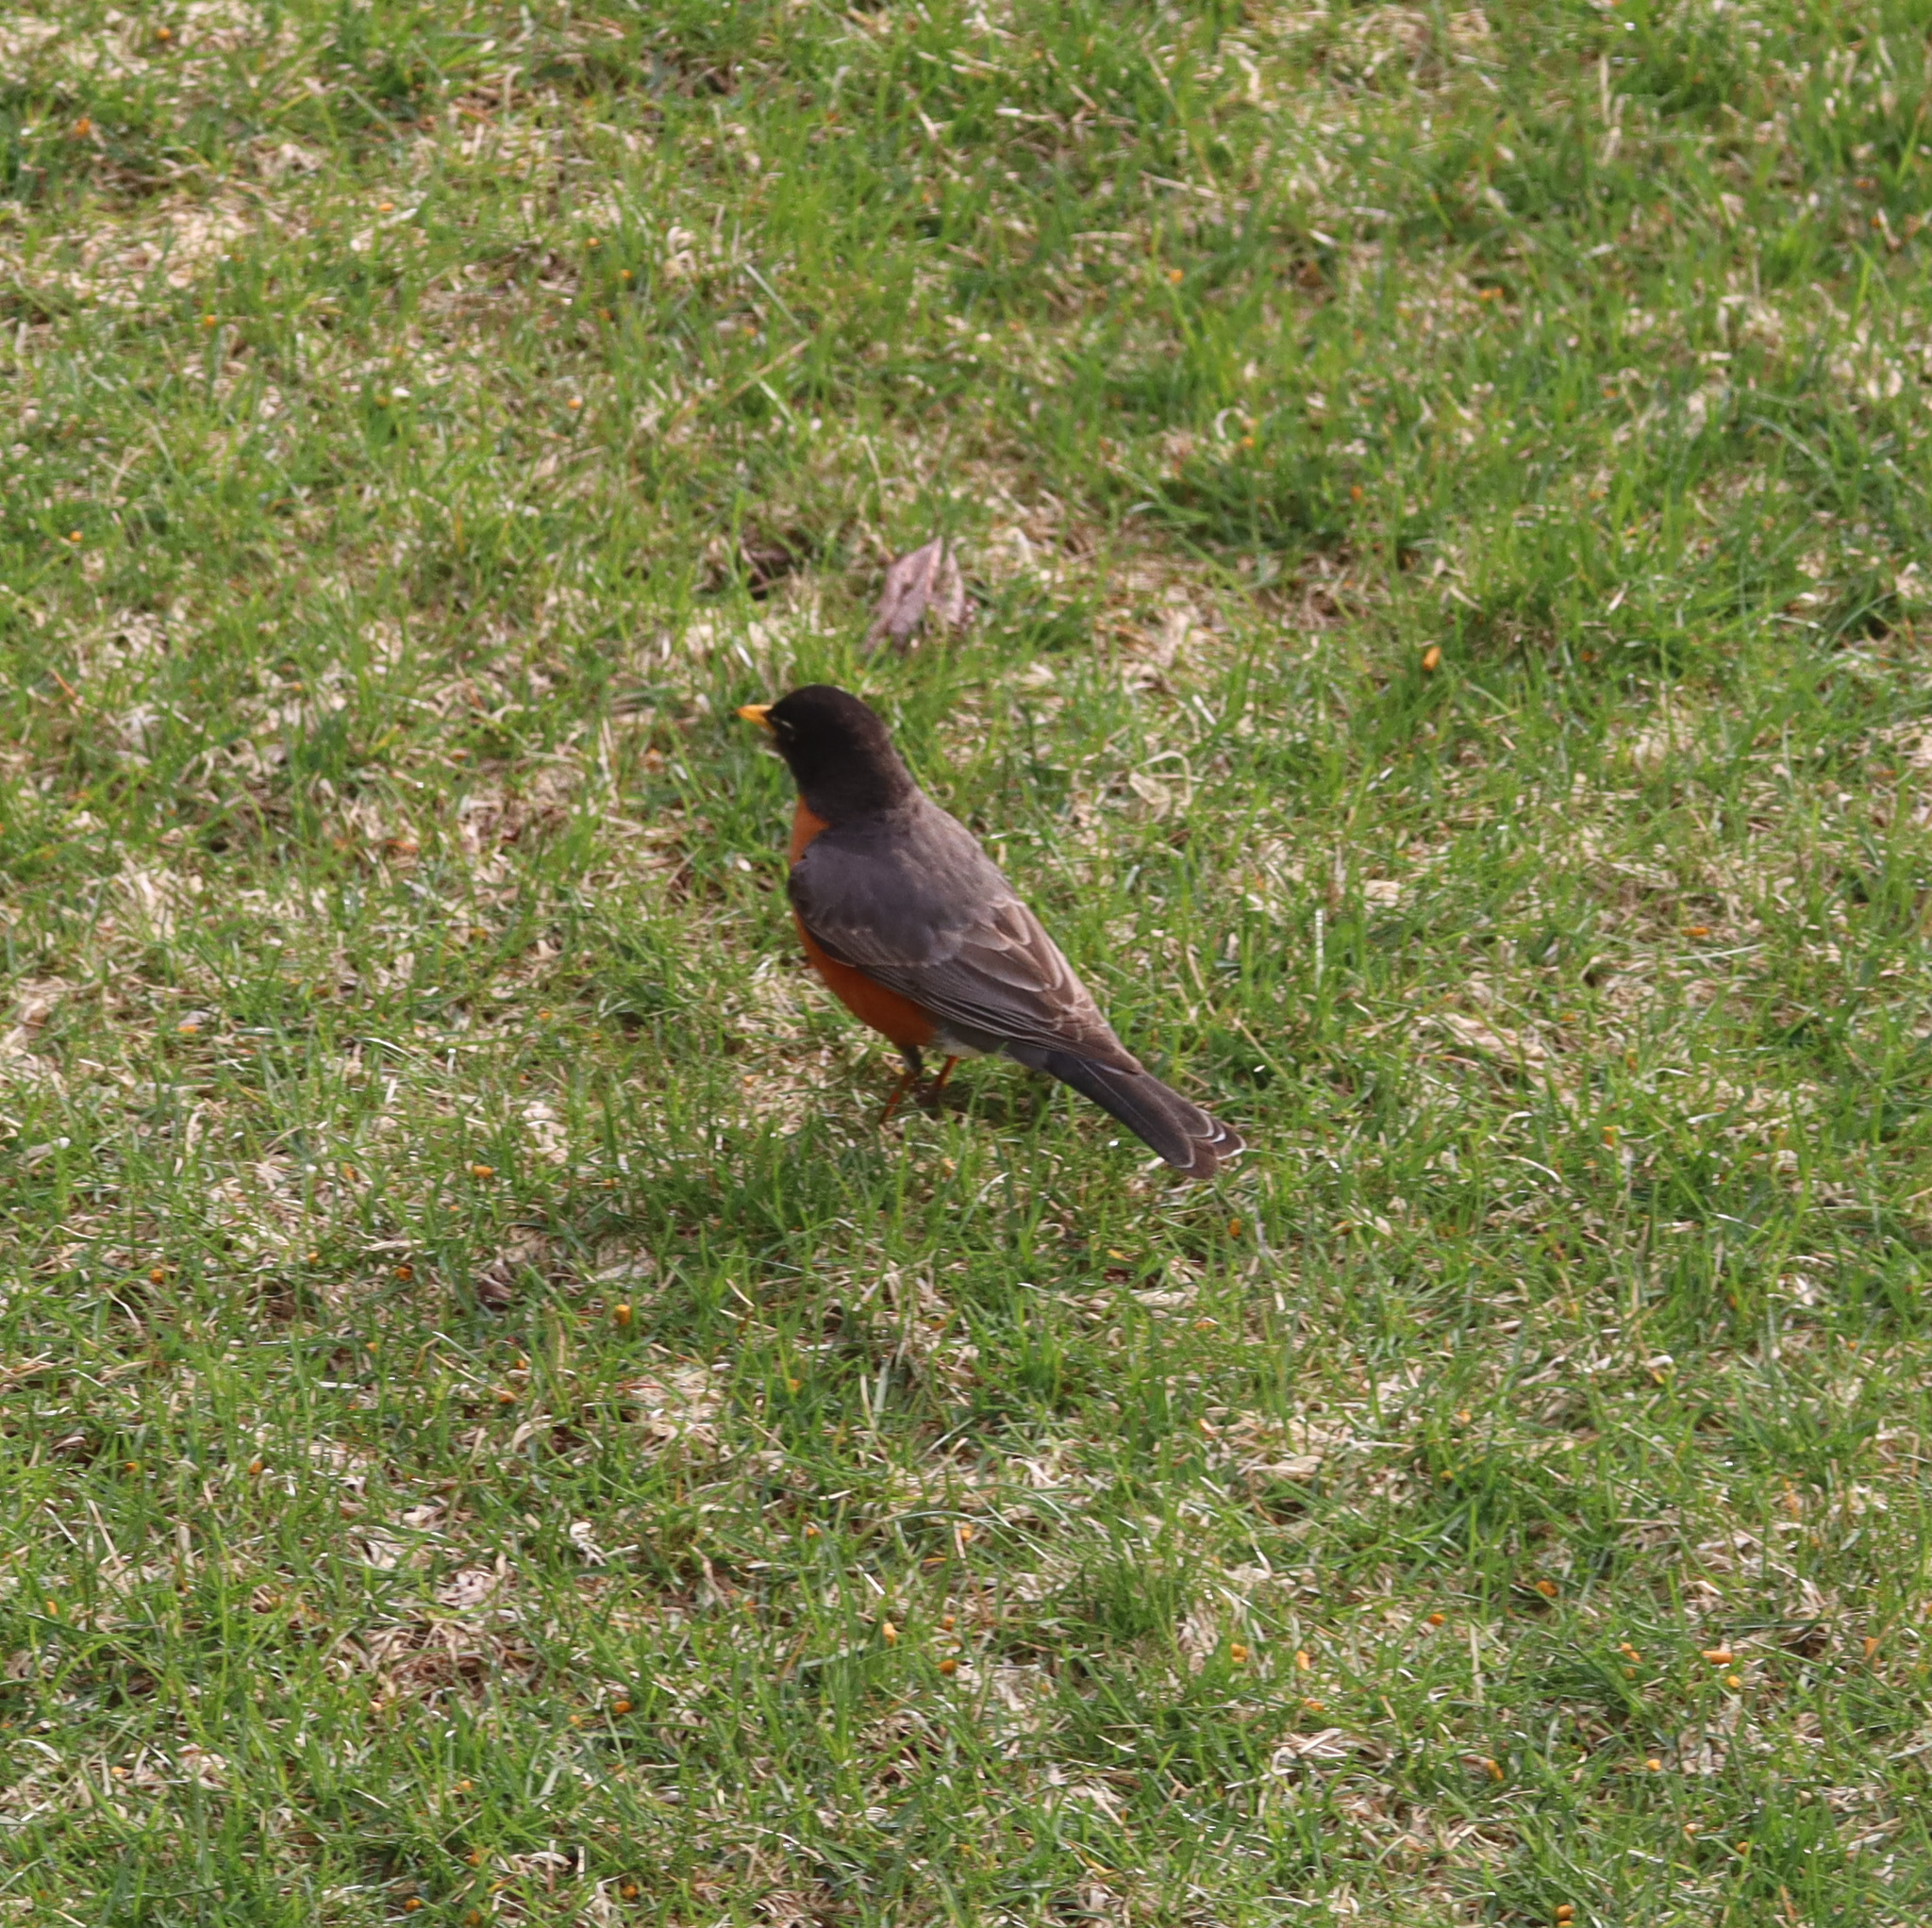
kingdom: Animalia
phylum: Chordata
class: Aves
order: Passeriformes
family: Turdidae
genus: Turdus
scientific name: Turdus migratorius
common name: American robin
